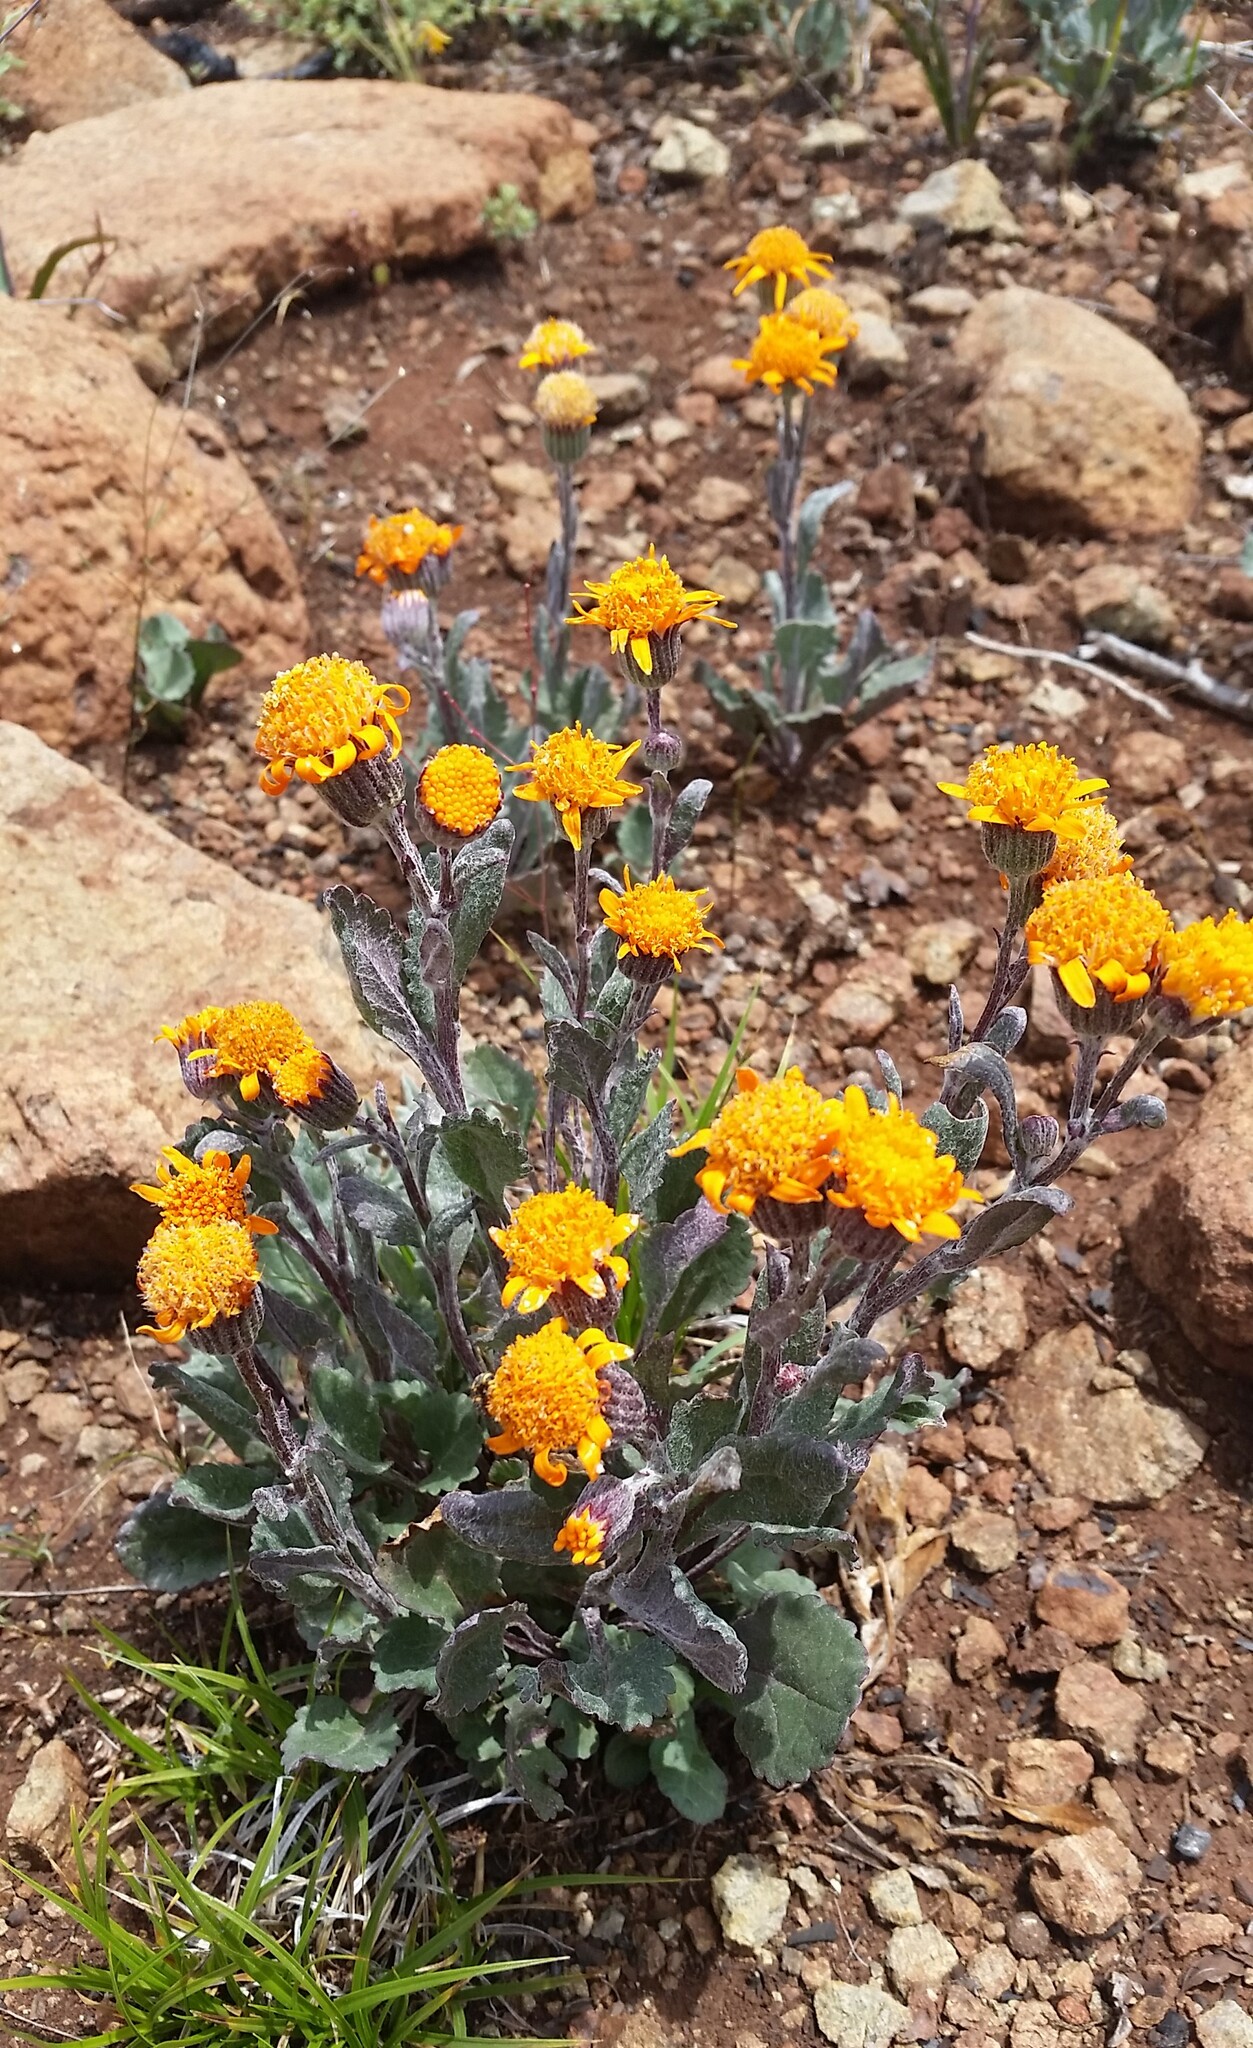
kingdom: Plantae
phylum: Tracheophyta
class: Magnoliopsida
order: Asterales
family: Asteraceae
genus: Packera
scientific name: Packera greenei
